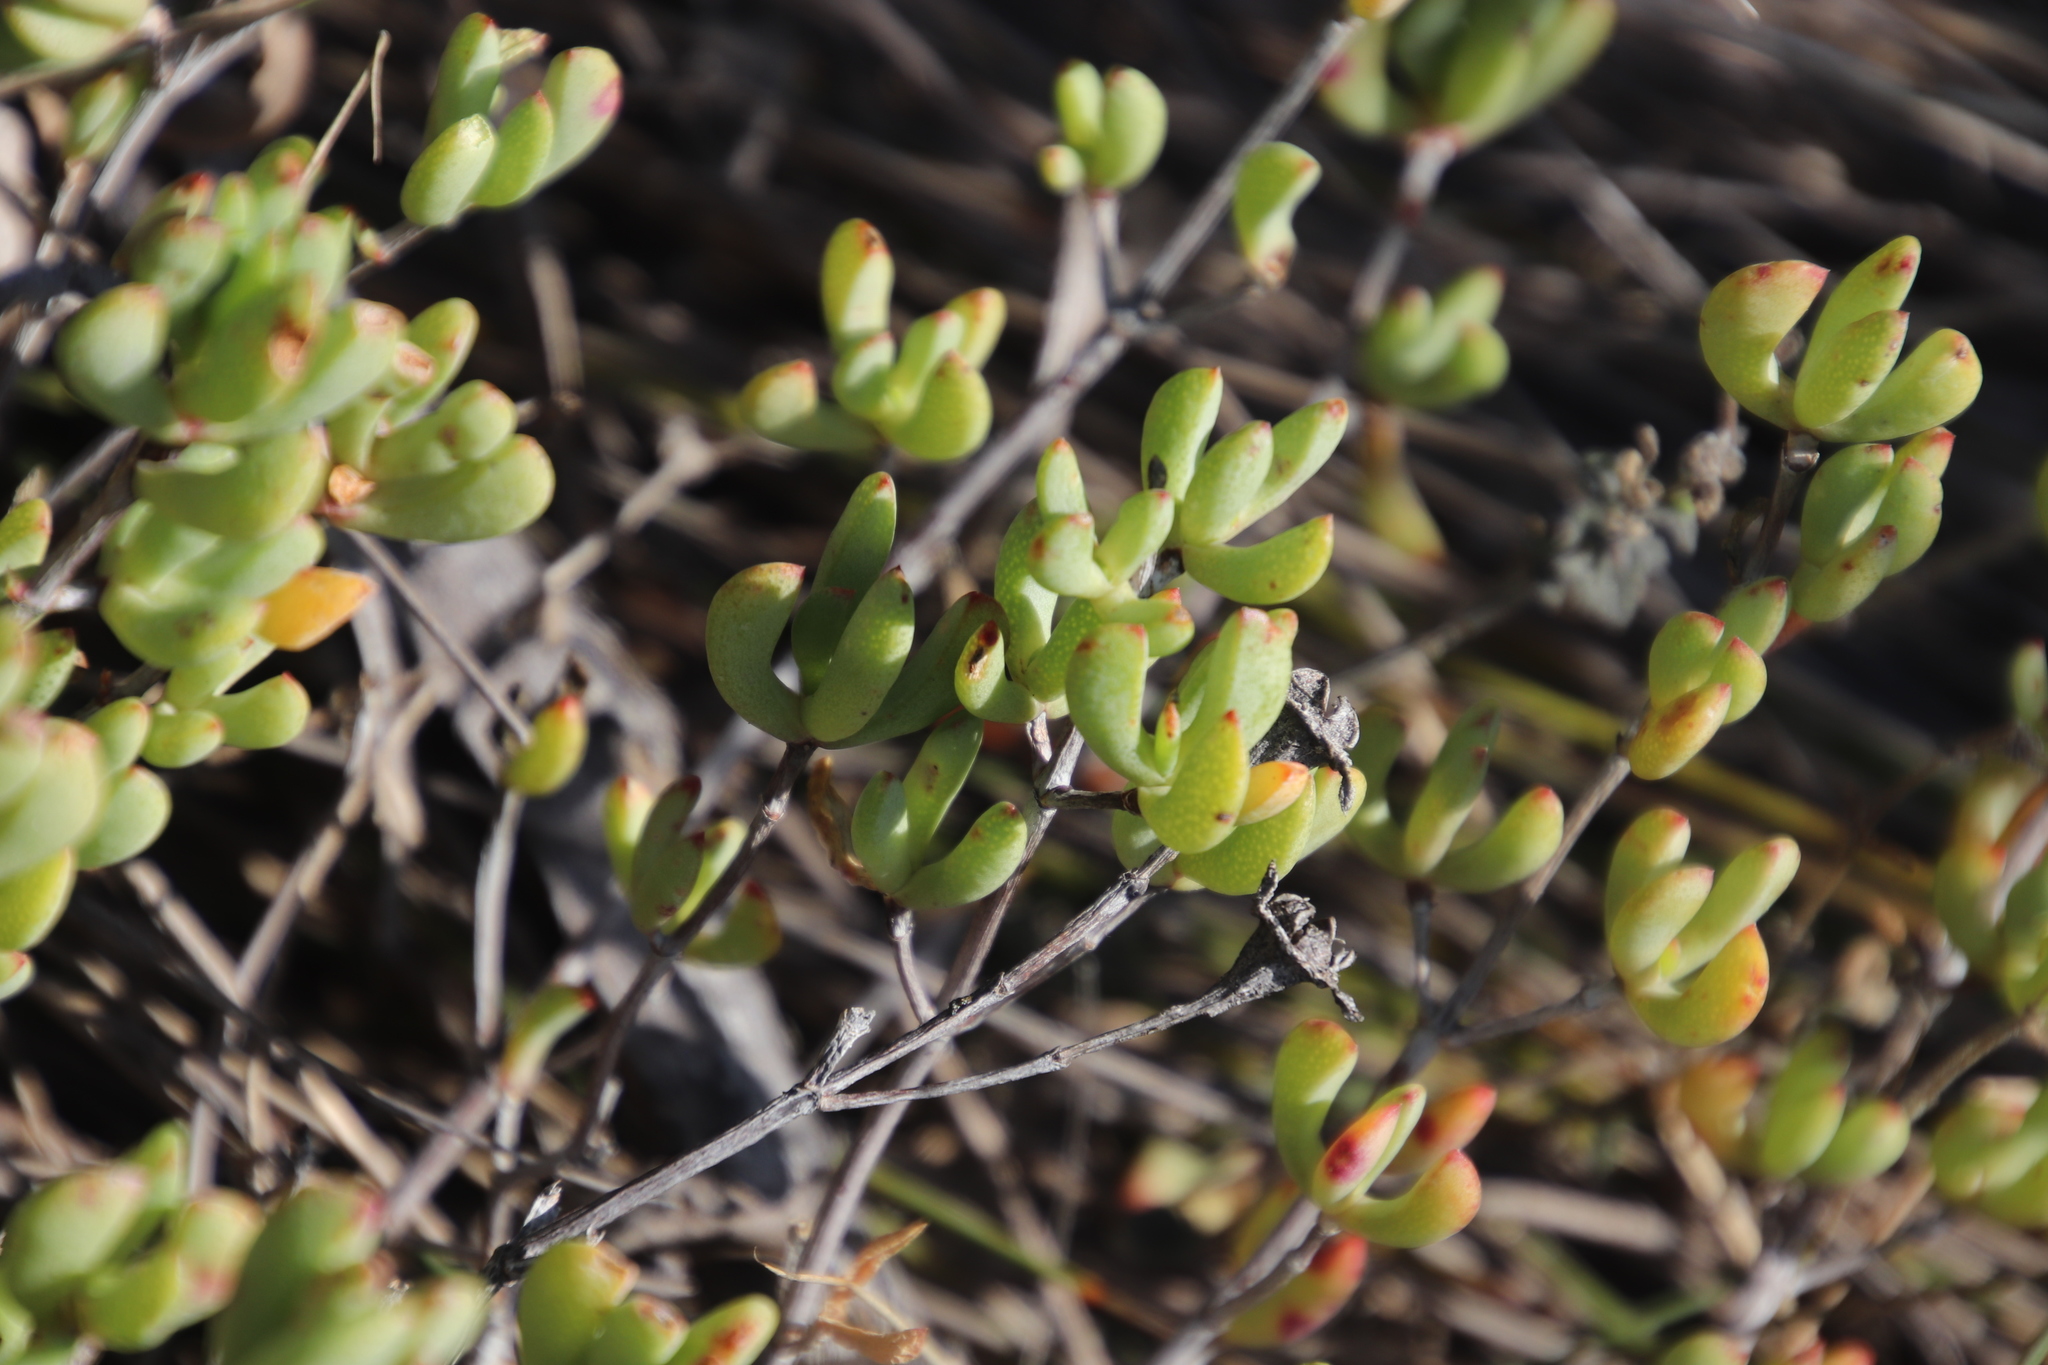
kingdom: Plantae
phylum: Tracheophyta
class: Magnoliopsida
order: Caryophyllales
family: Aizoaceae
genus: Oscularia
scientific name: Oscularia falciformis
